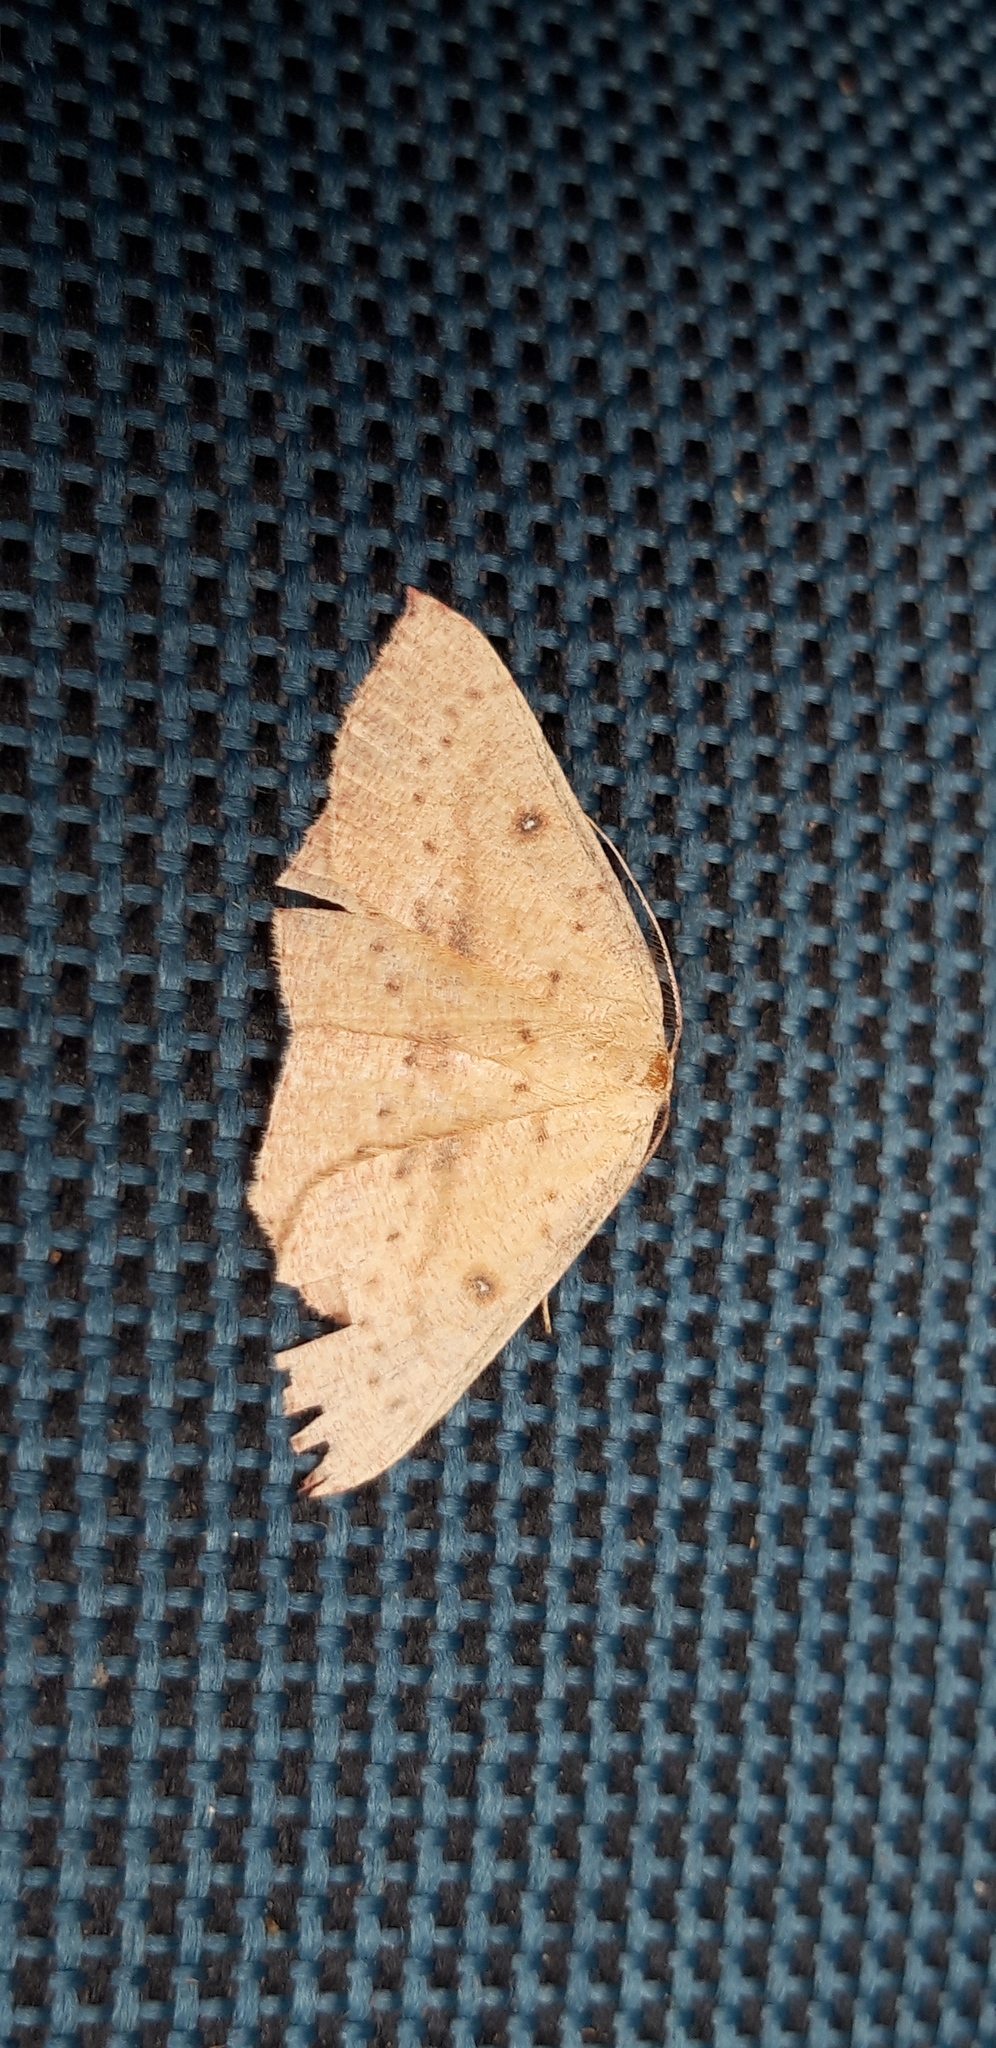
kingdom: Animalia
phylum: Arthropoda
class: Insecta
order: Lepidoptera
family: Geometridae
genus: Cyclophora
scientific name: Cyclophora puppillaria
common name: Blair's mocha
